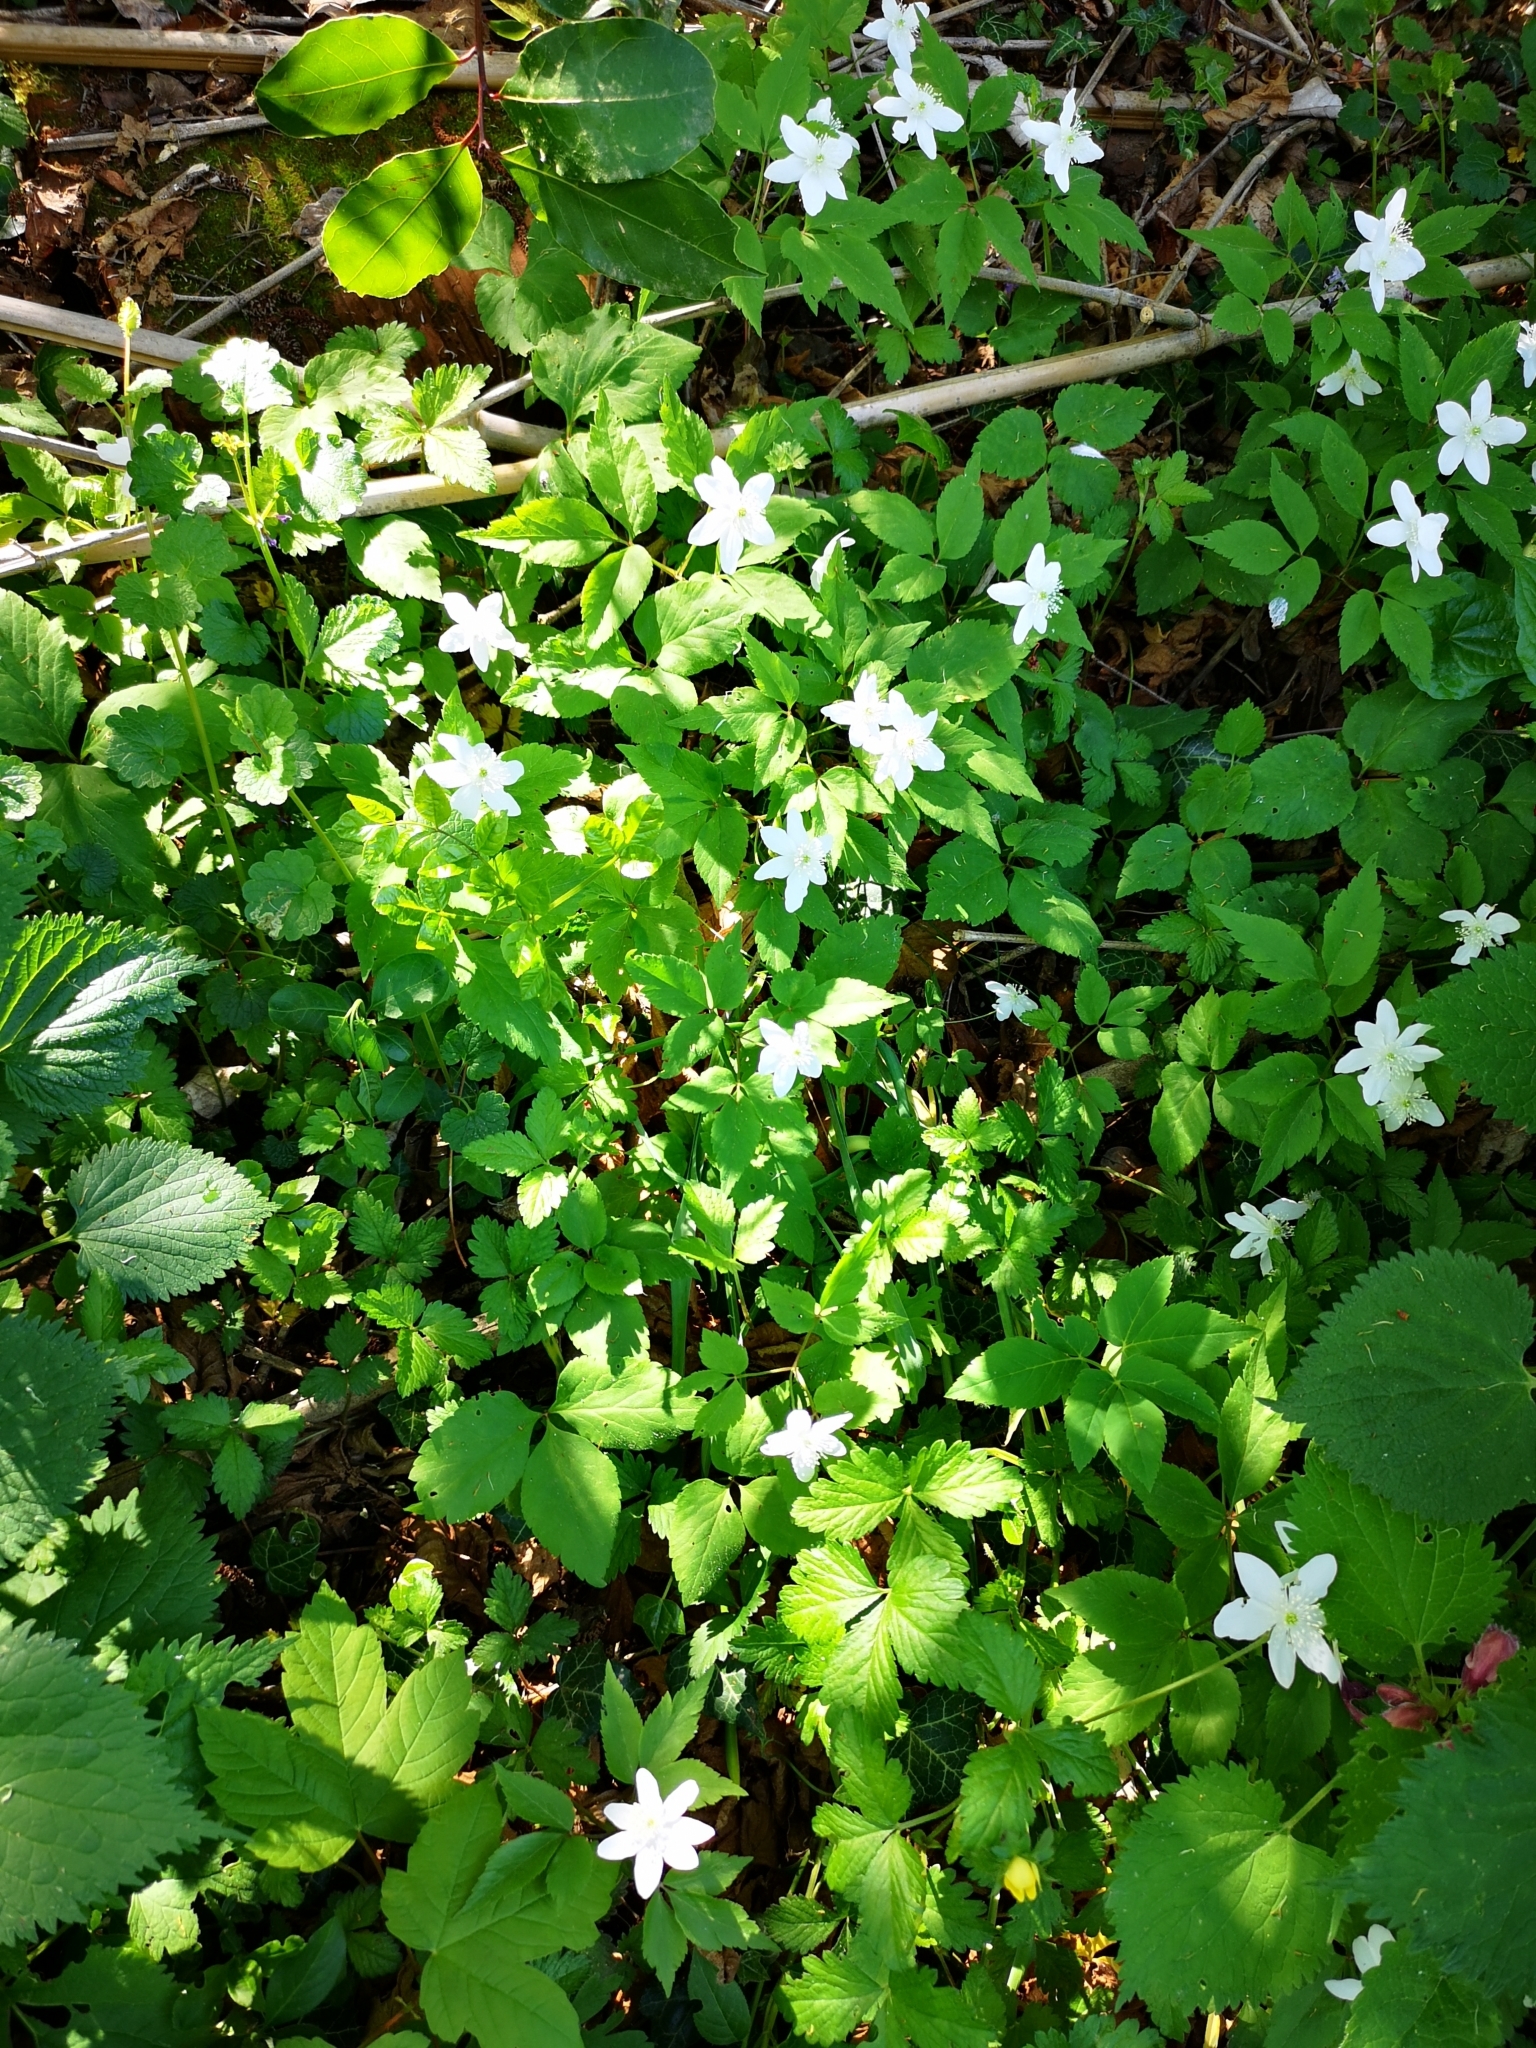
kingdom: Plantae
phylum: Tracheophyta
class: Magnoliopsida
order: Ranunculales
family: Ranunculaceae
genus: Anemone
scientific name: Anemone trifolia
